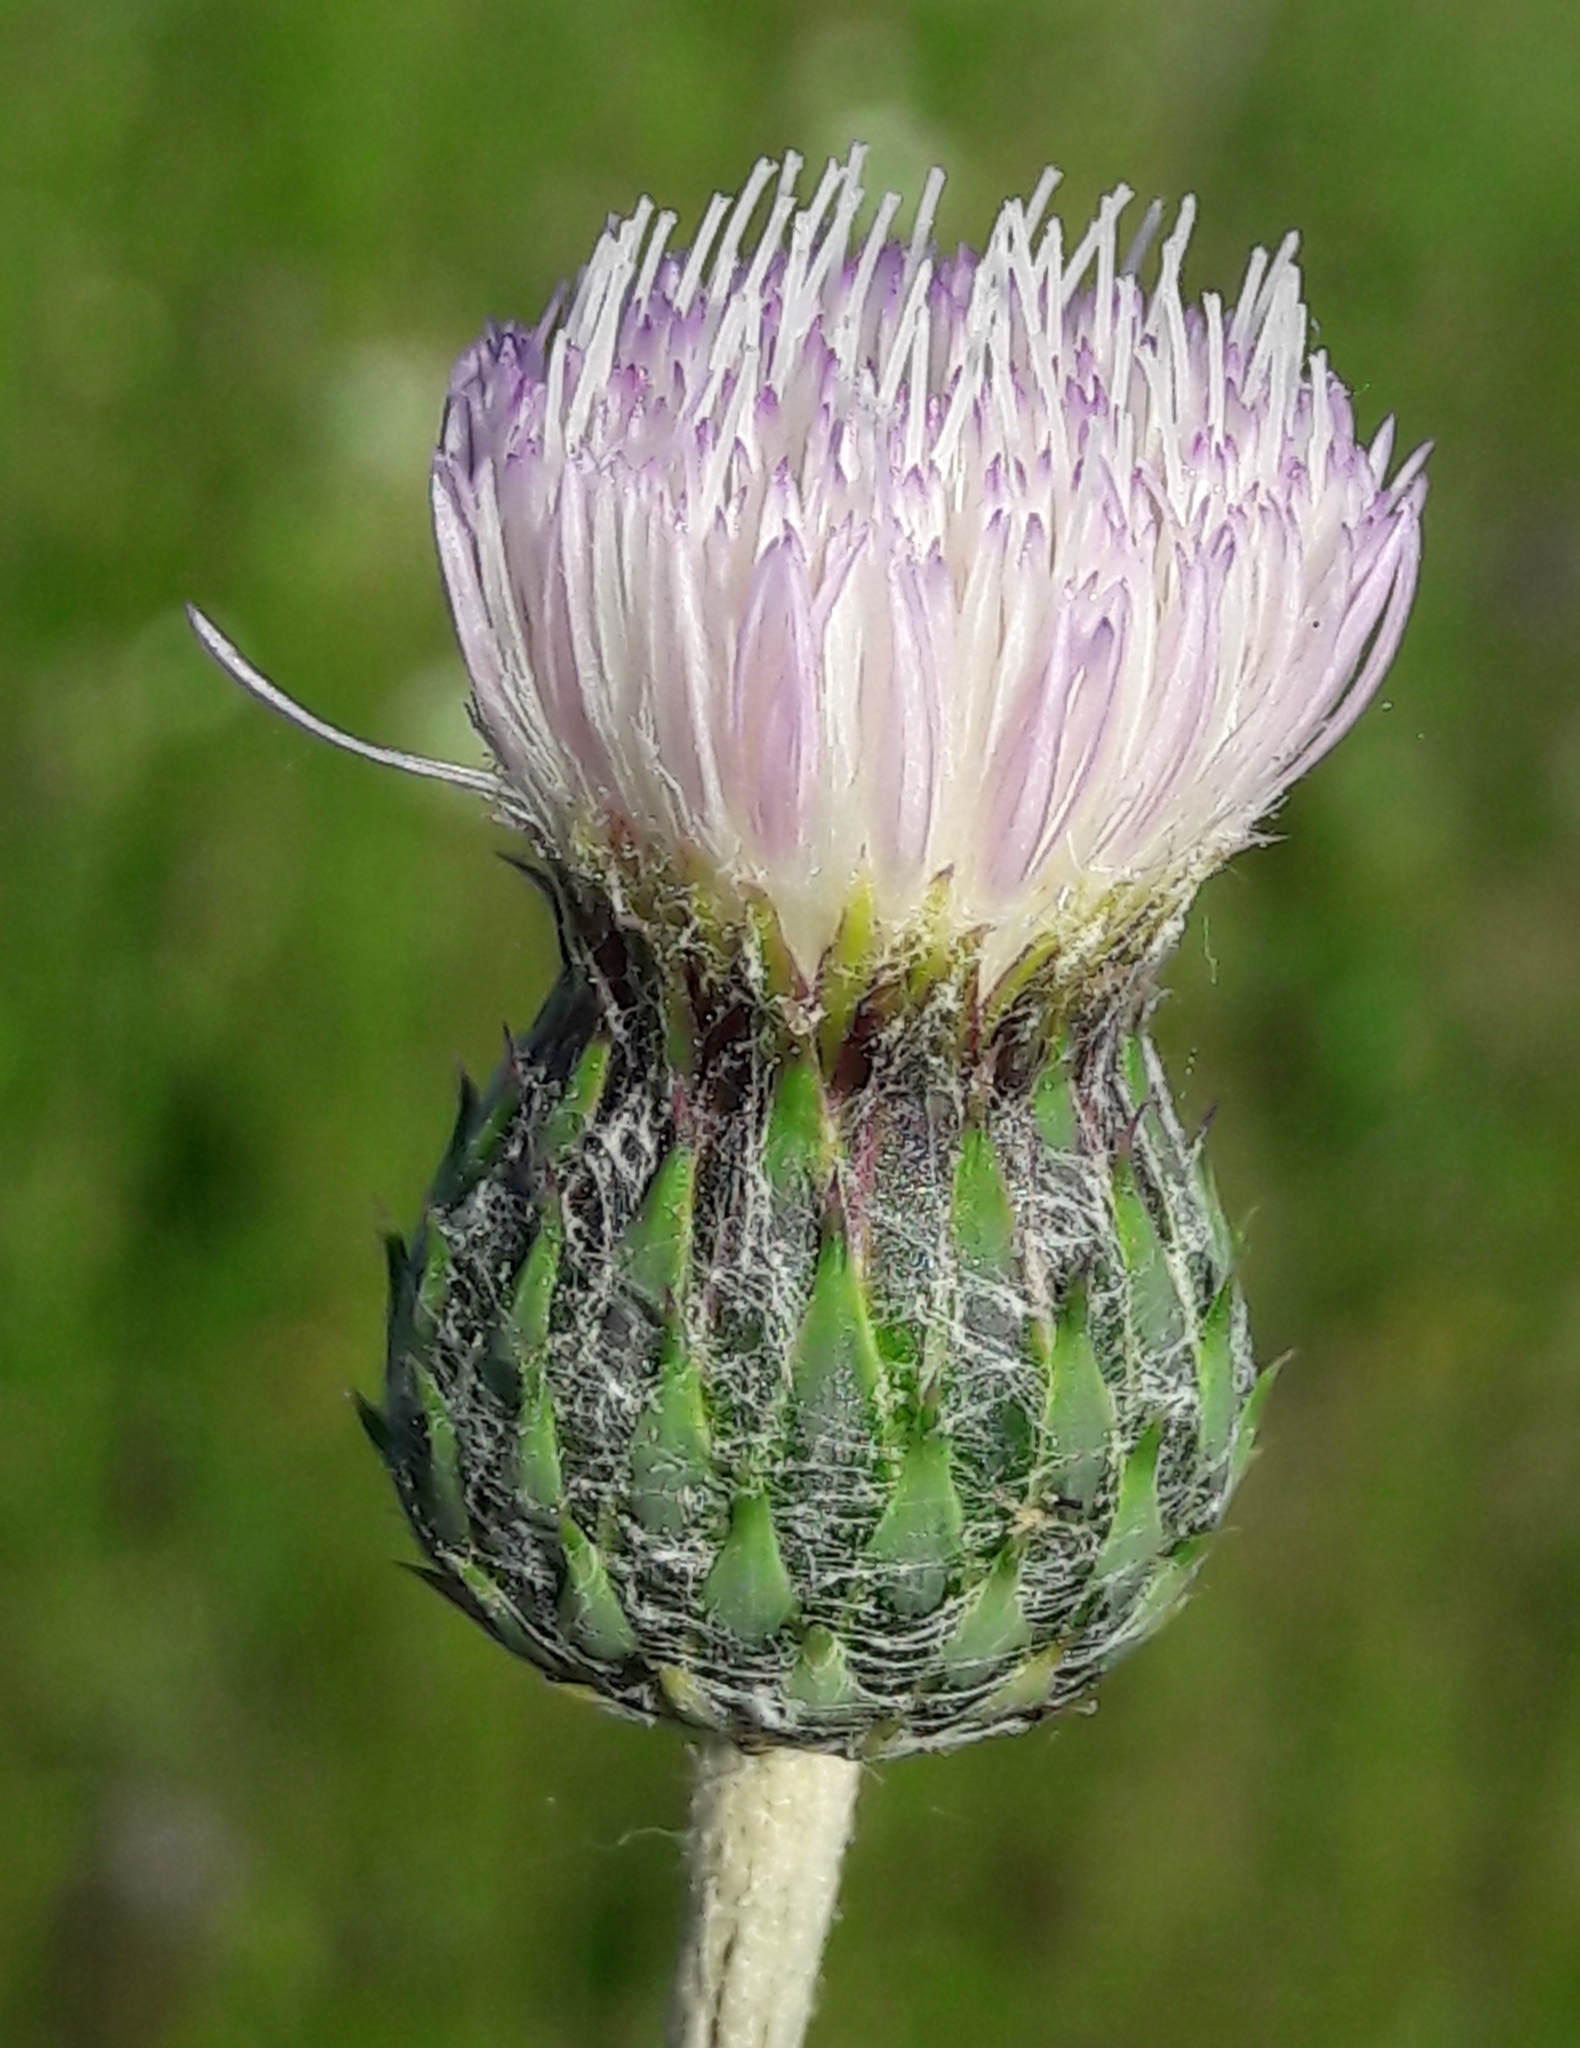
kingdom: Plantae
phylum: Tracheophyta
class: Magnoliopsida
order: Asterales
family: Asteraceae
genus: Tyrimnus
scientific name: Tyrimnus leucographus
